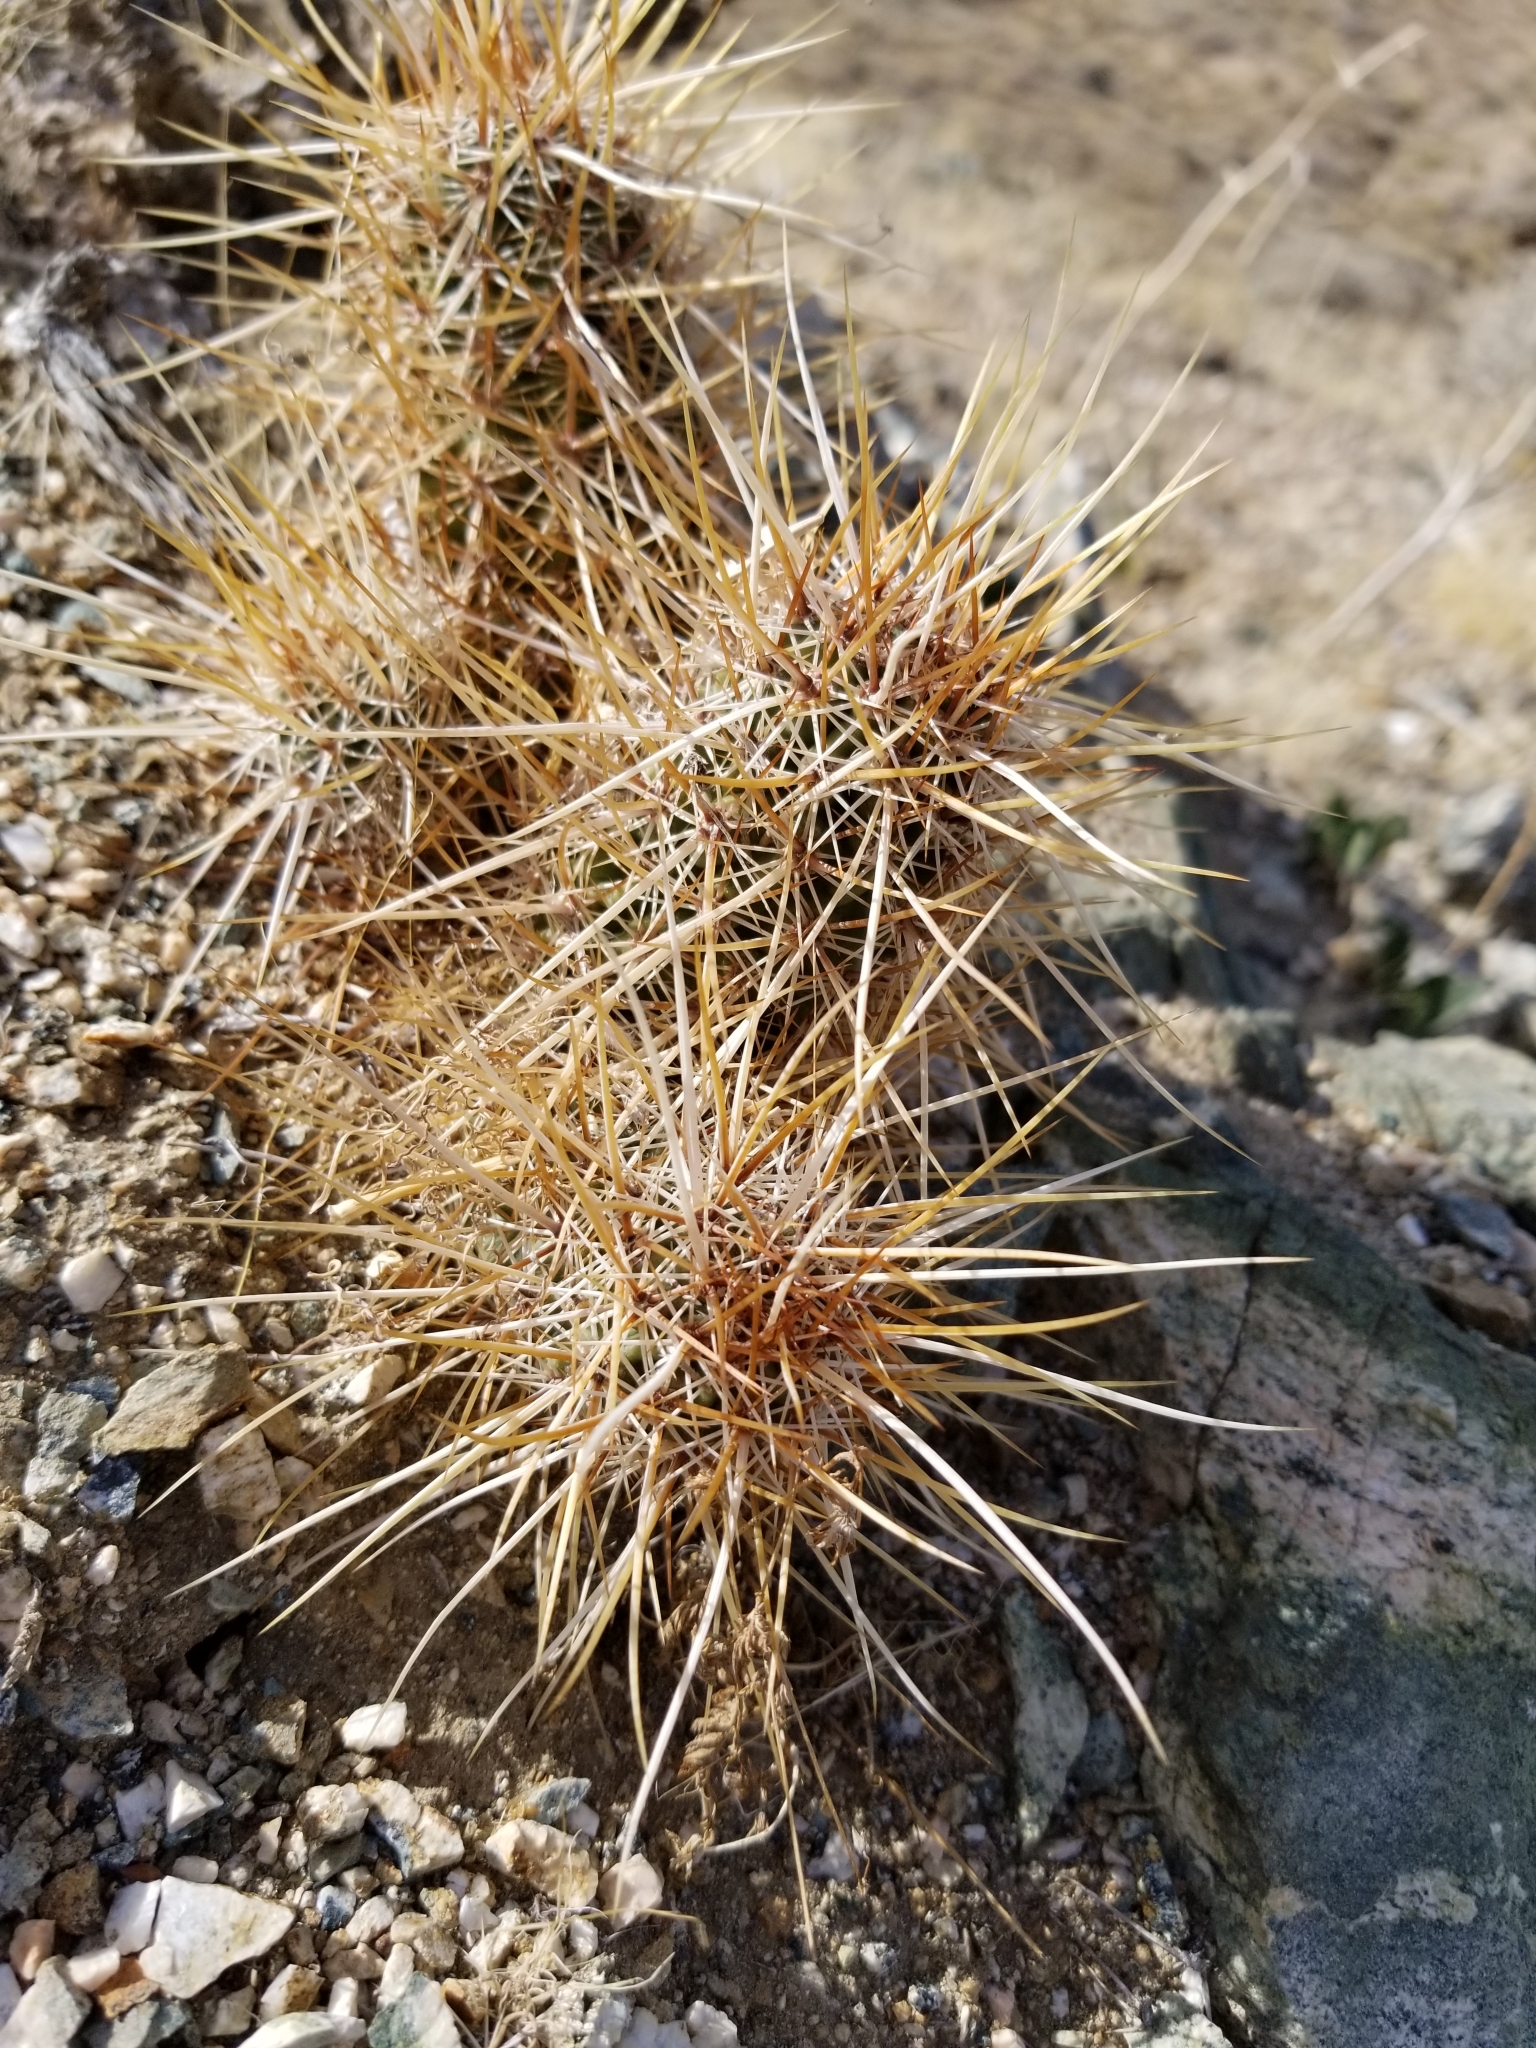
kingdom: Plantae
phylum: Tracheophyta
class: Magnoliopsida
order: Caryophyllales
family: Cactaceae
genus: Echinocereus
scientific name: Echinocereus engelmannii
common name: Engelmann's hedgehog cactus
